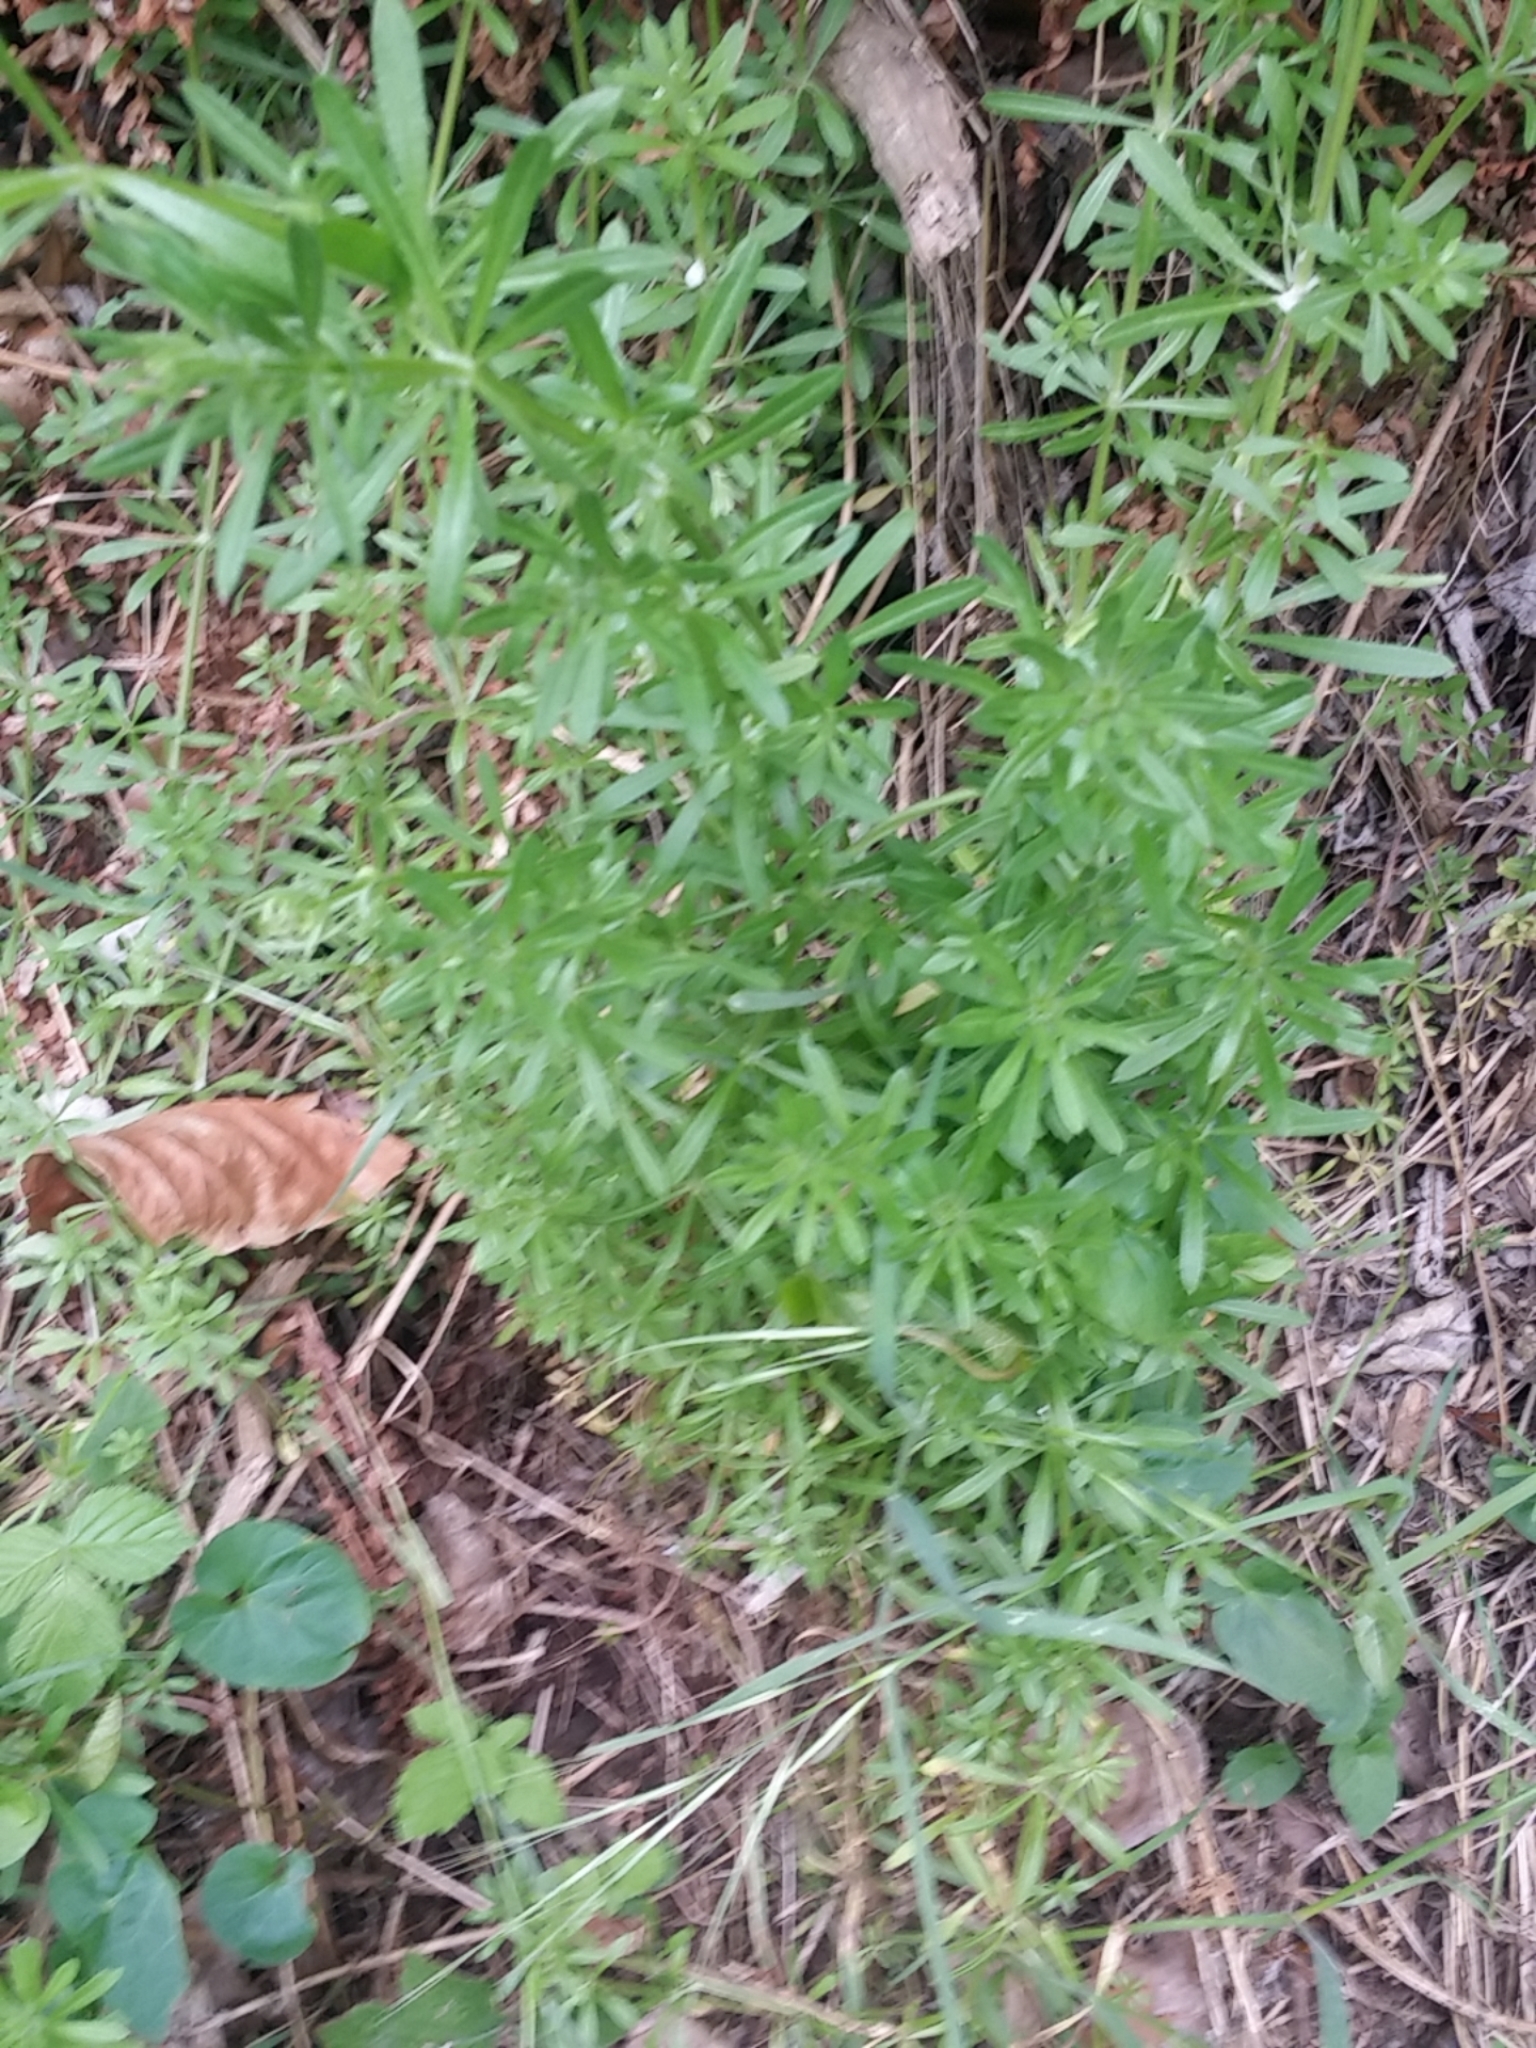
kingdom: Plantae
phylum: Tracheophyta
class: Magnoliopsida
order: Gentianales
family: Rubiaceae
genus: Galium
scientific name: Galium aparine
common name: Cleavers
